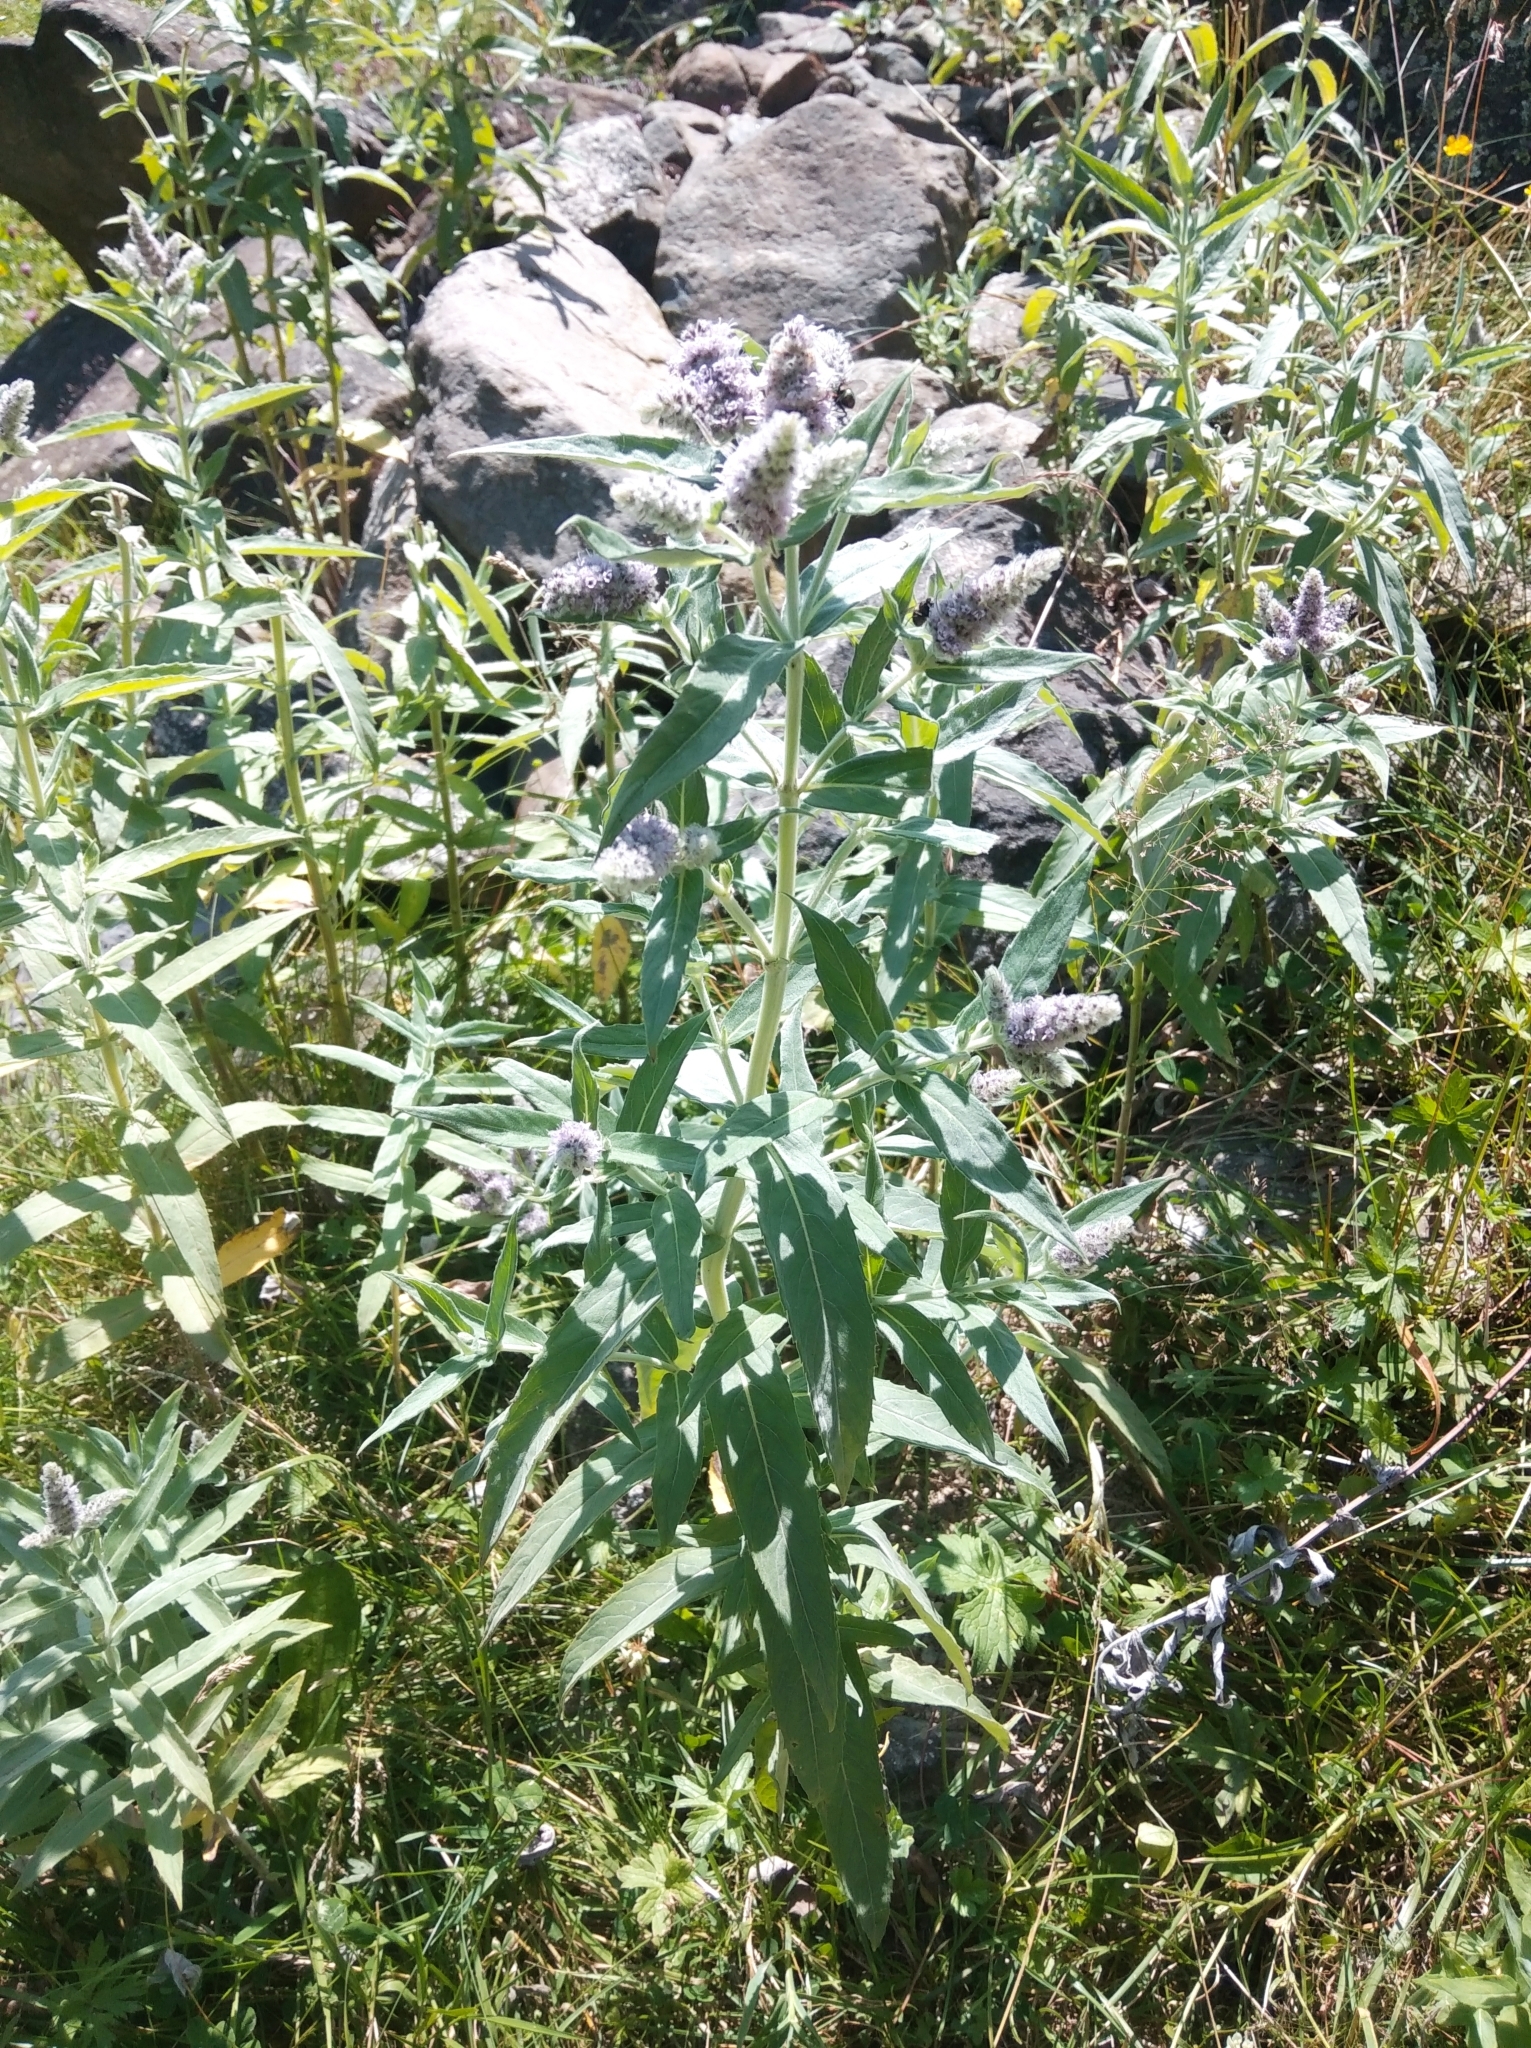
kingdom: Plantae
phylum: Tracheophyta
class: Magnoliopsida
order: Lamiales
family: Lamiaceae
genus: Mentha
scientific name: Mentha longifolia
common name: Horse mint
